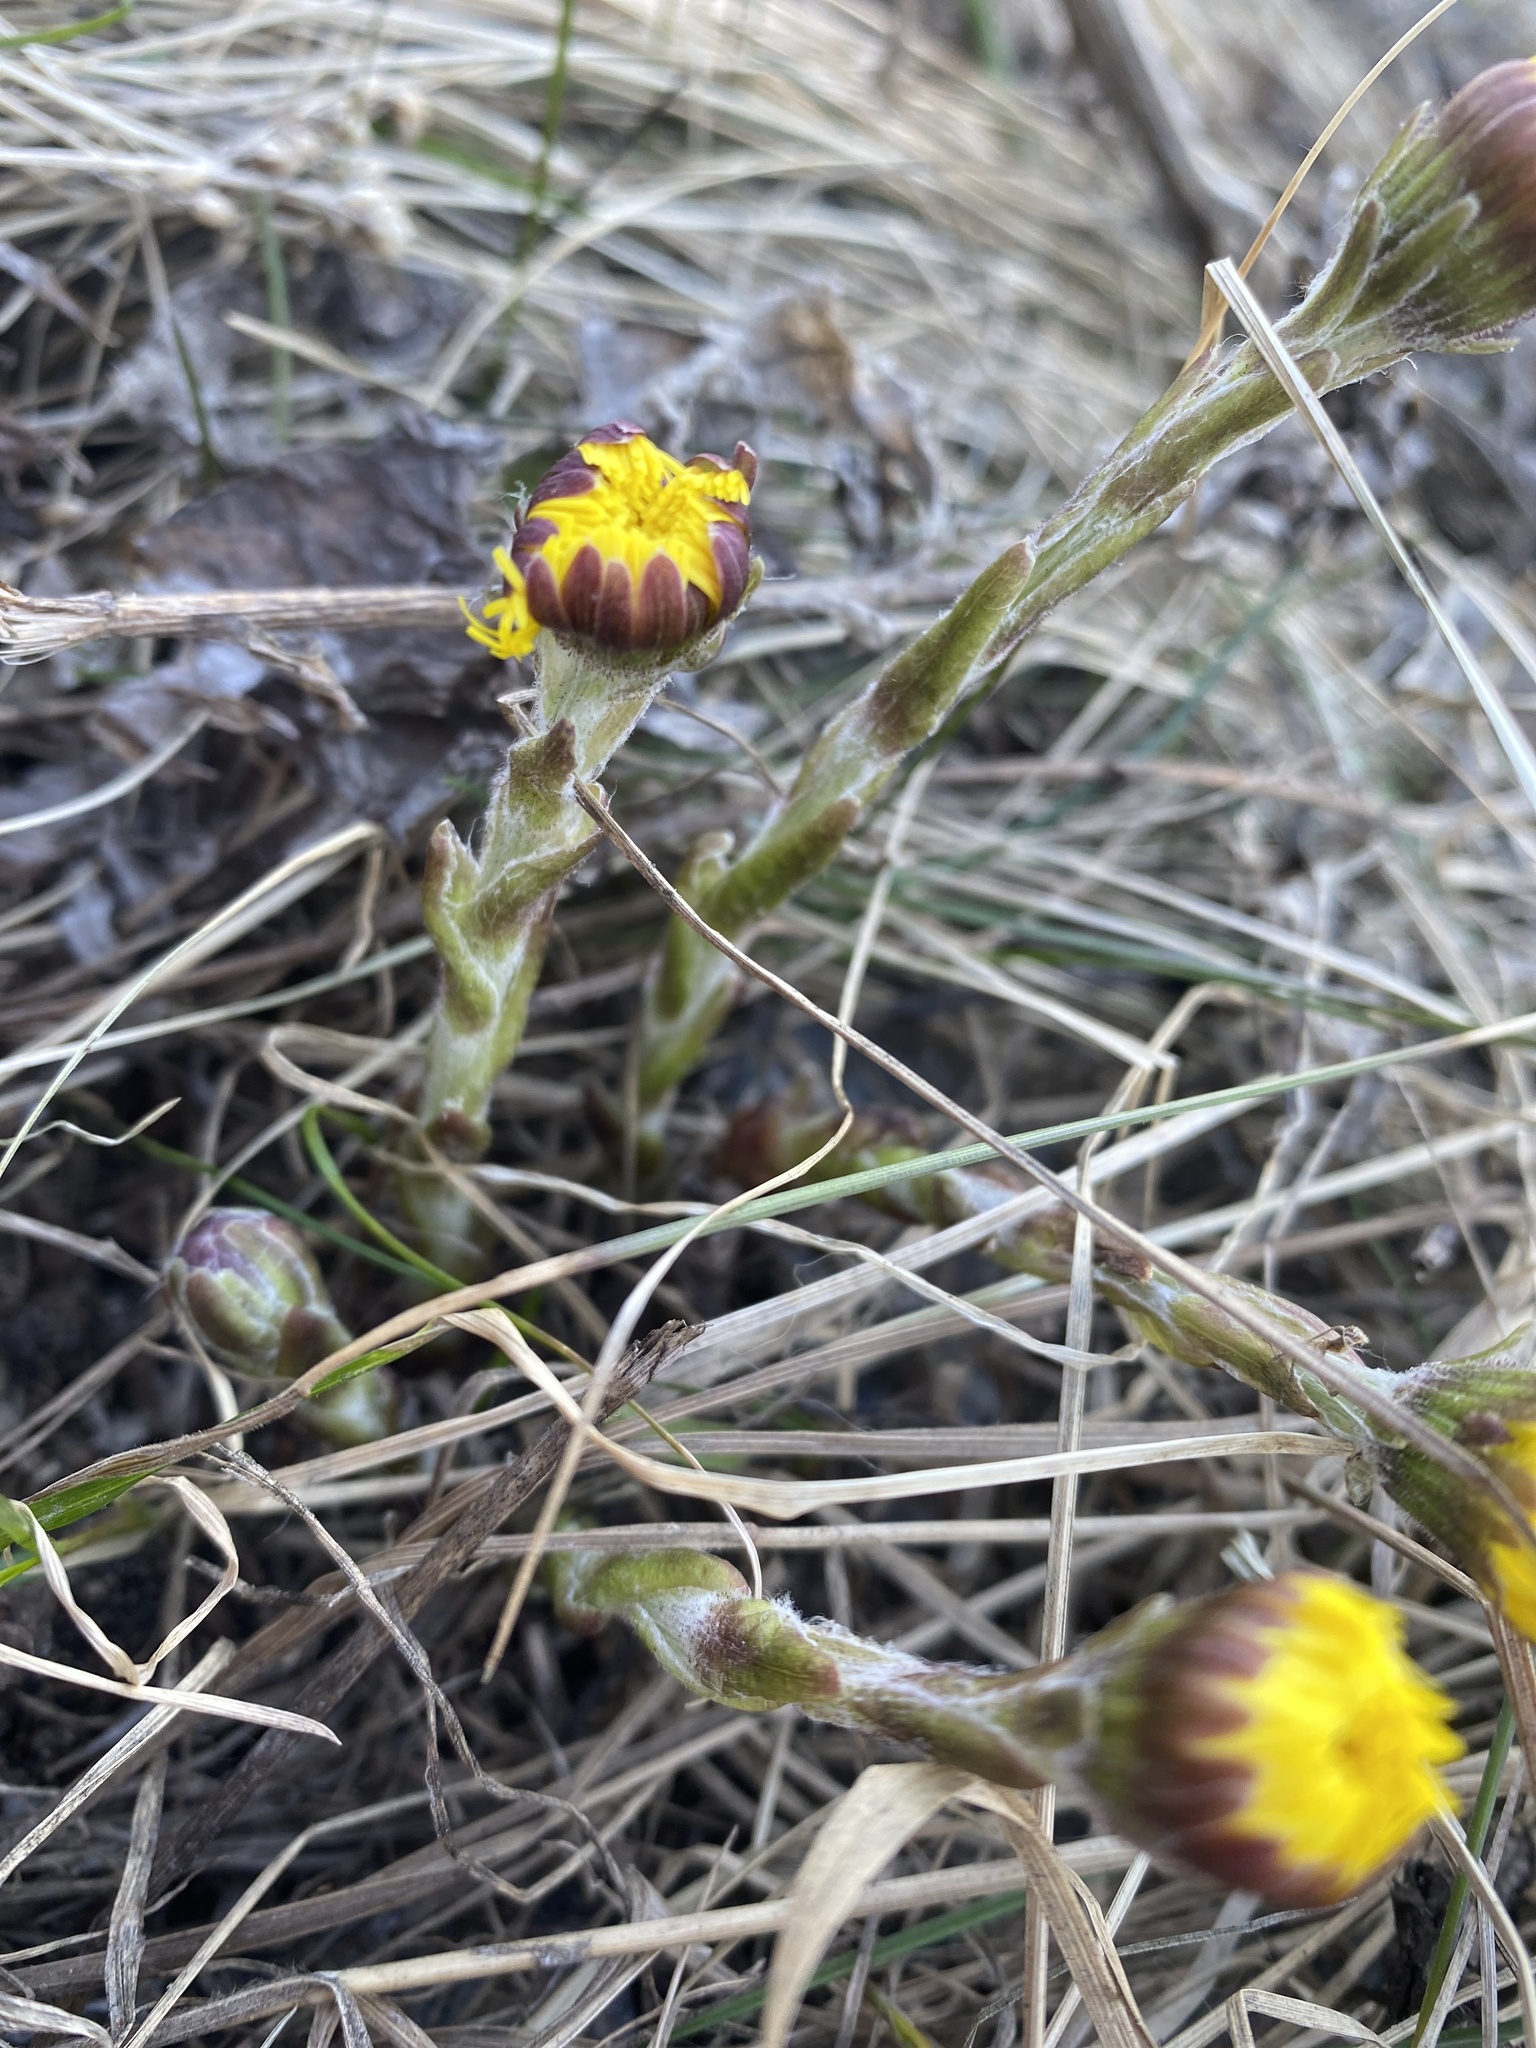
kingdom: Plantae
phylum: Tracheophyta
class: Magnoliopsida
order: Asterales
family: Asteraceae
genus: Tussilago
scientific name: Tussilago farfara
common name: Coltsfoot
